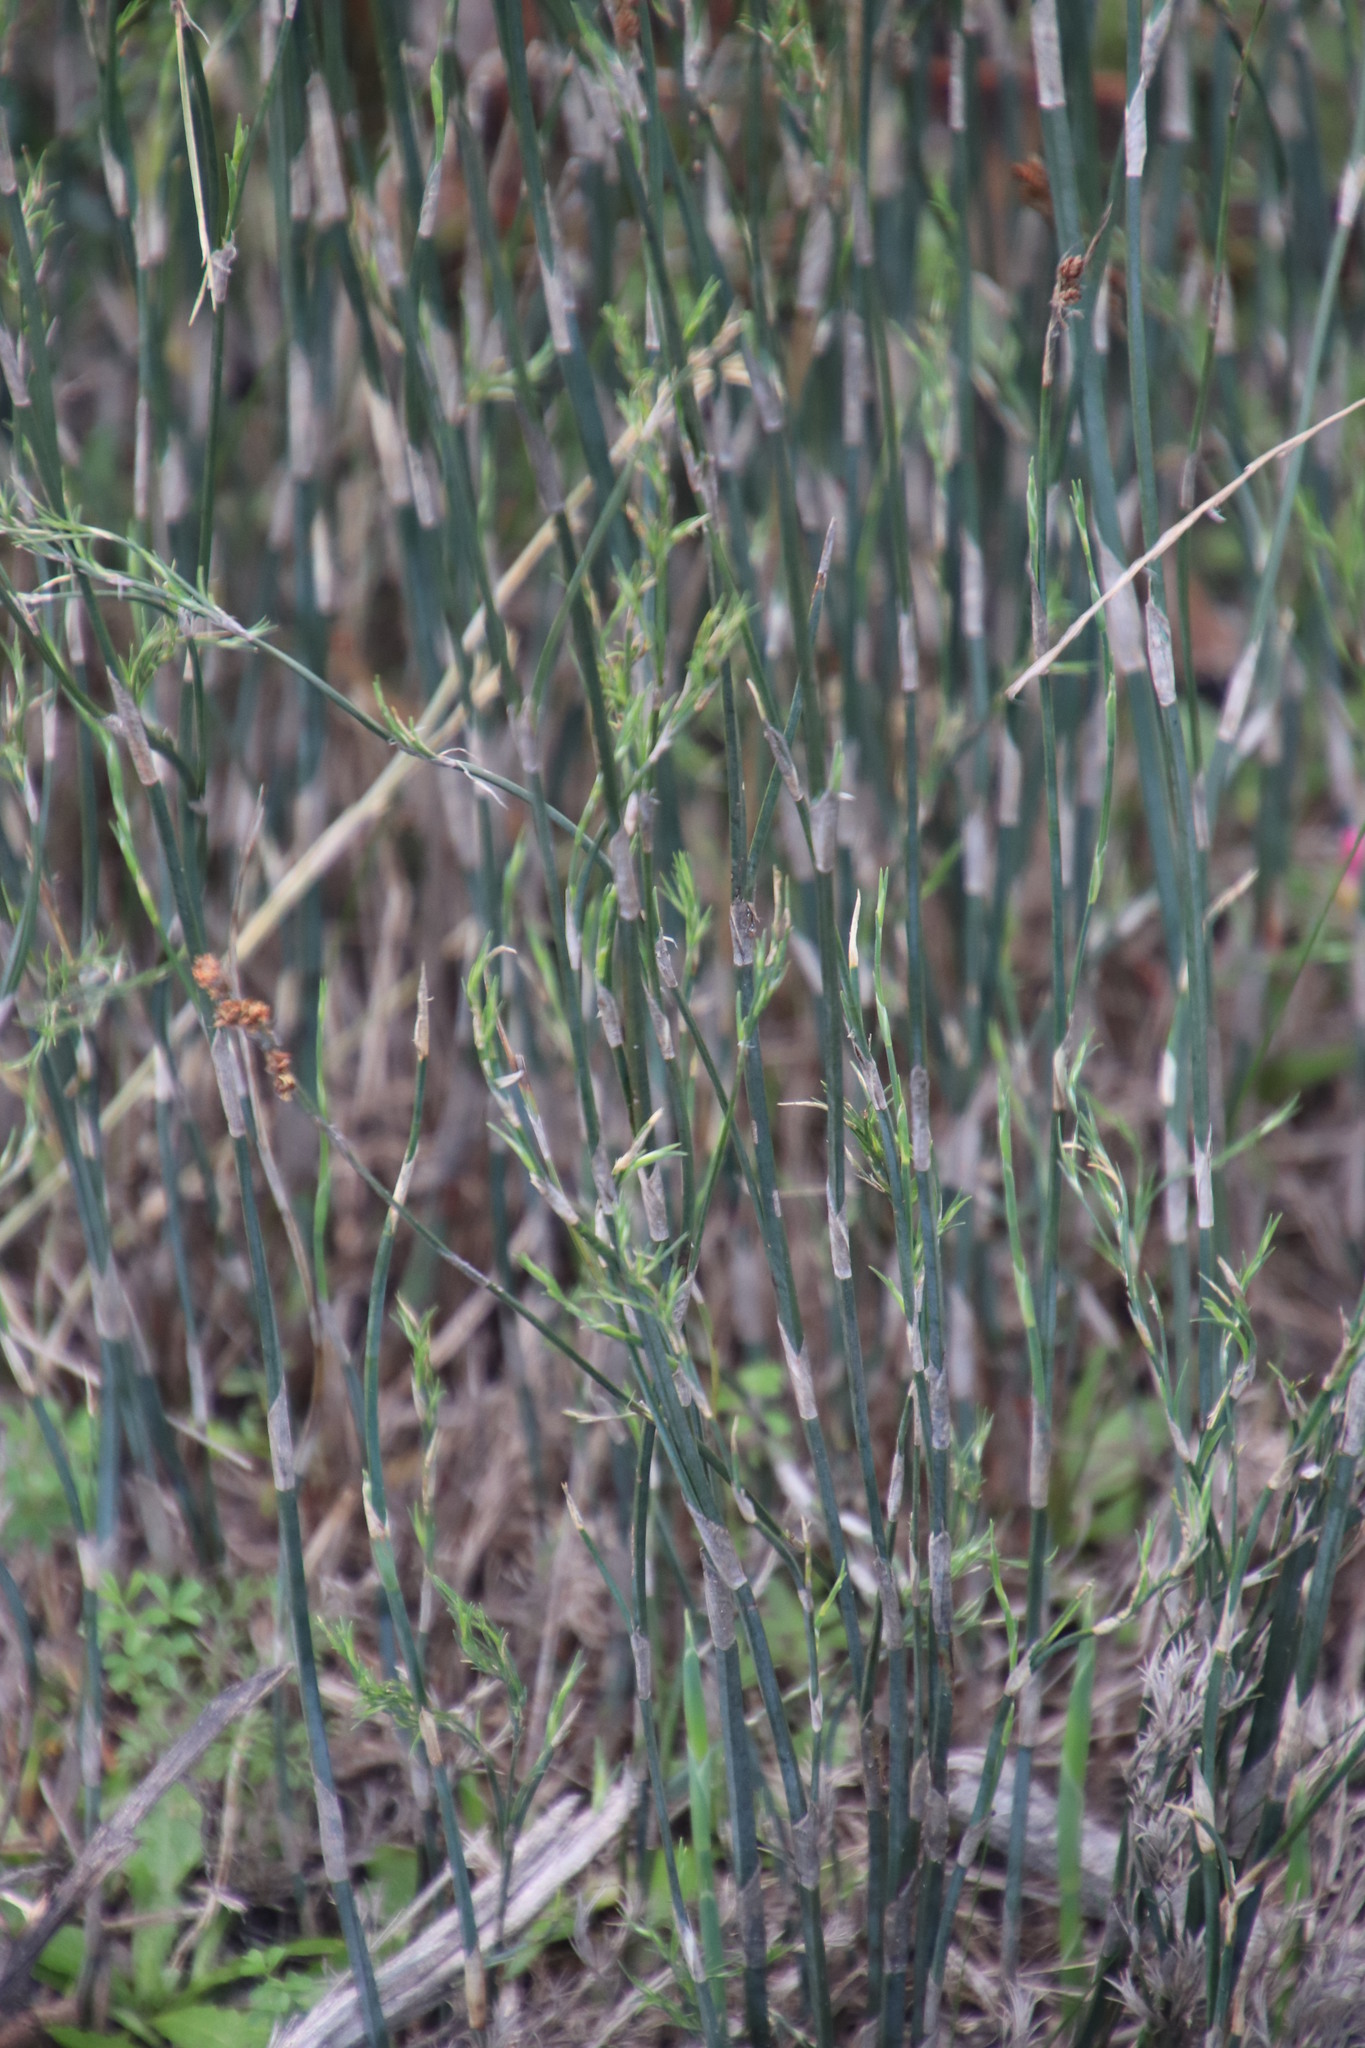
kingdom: Plantae
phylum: Tracheophyta
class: Liliopsida
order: Poales
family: Restionaceae
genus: Restio
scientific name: Restio tetragonus
